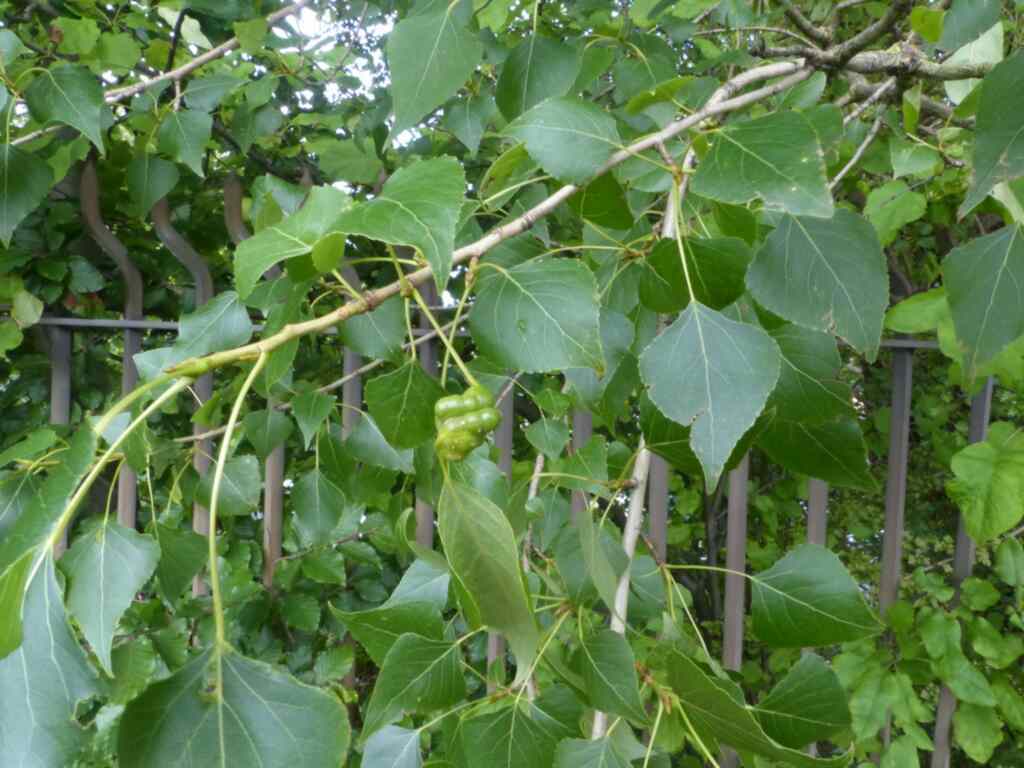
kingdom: Animalia
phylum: Arthropoda
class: Insecta
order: Hemiptera
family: Aphididae
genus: Pemphigus
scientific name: Pemphigus spyrothecae
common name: Aphid
